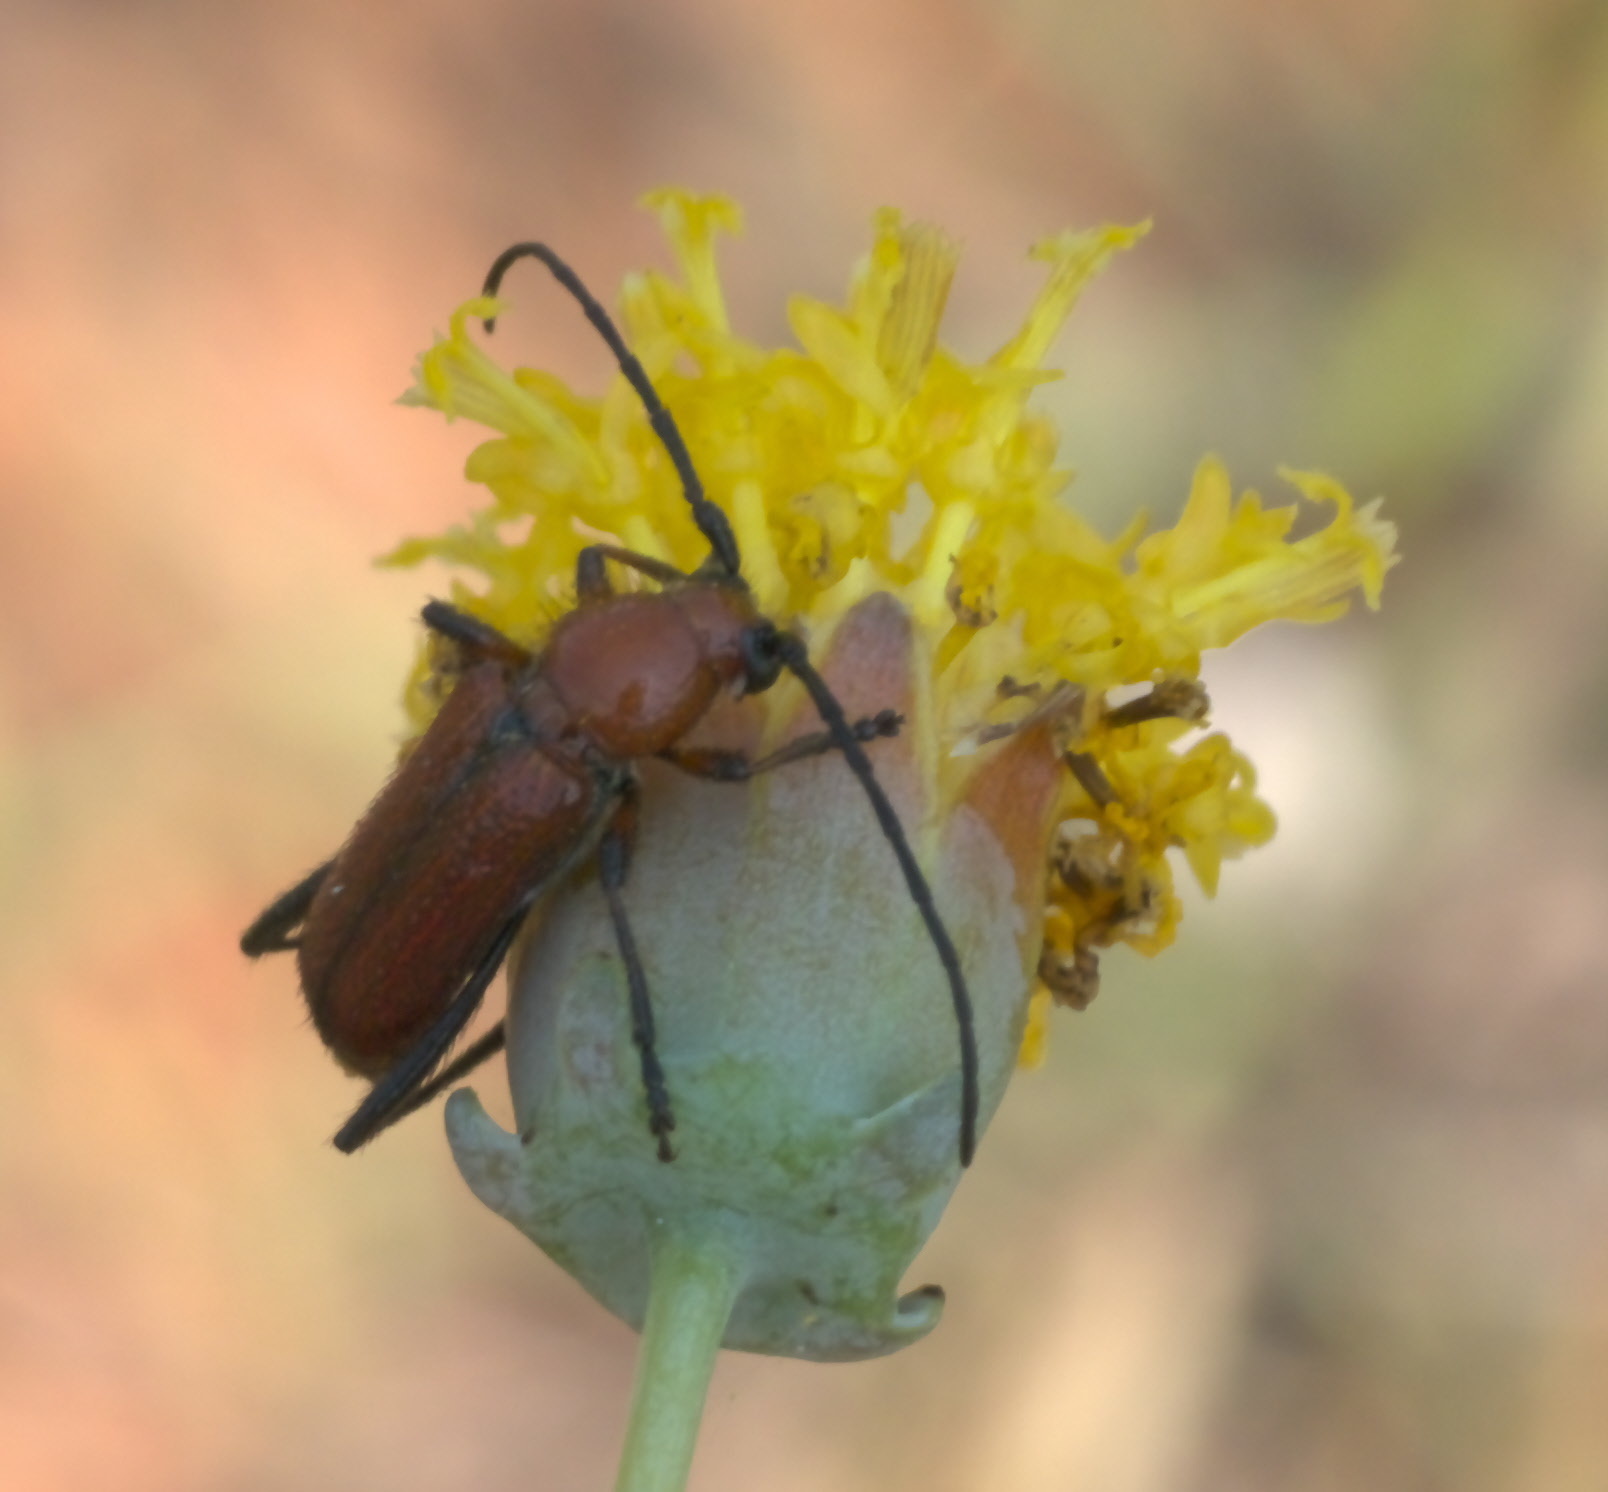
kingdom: Animalia
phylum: Arthropoda
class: Insecta
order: Coleoptera
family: Cerambycidae
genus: Batyle
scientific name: Batyle suturalis
